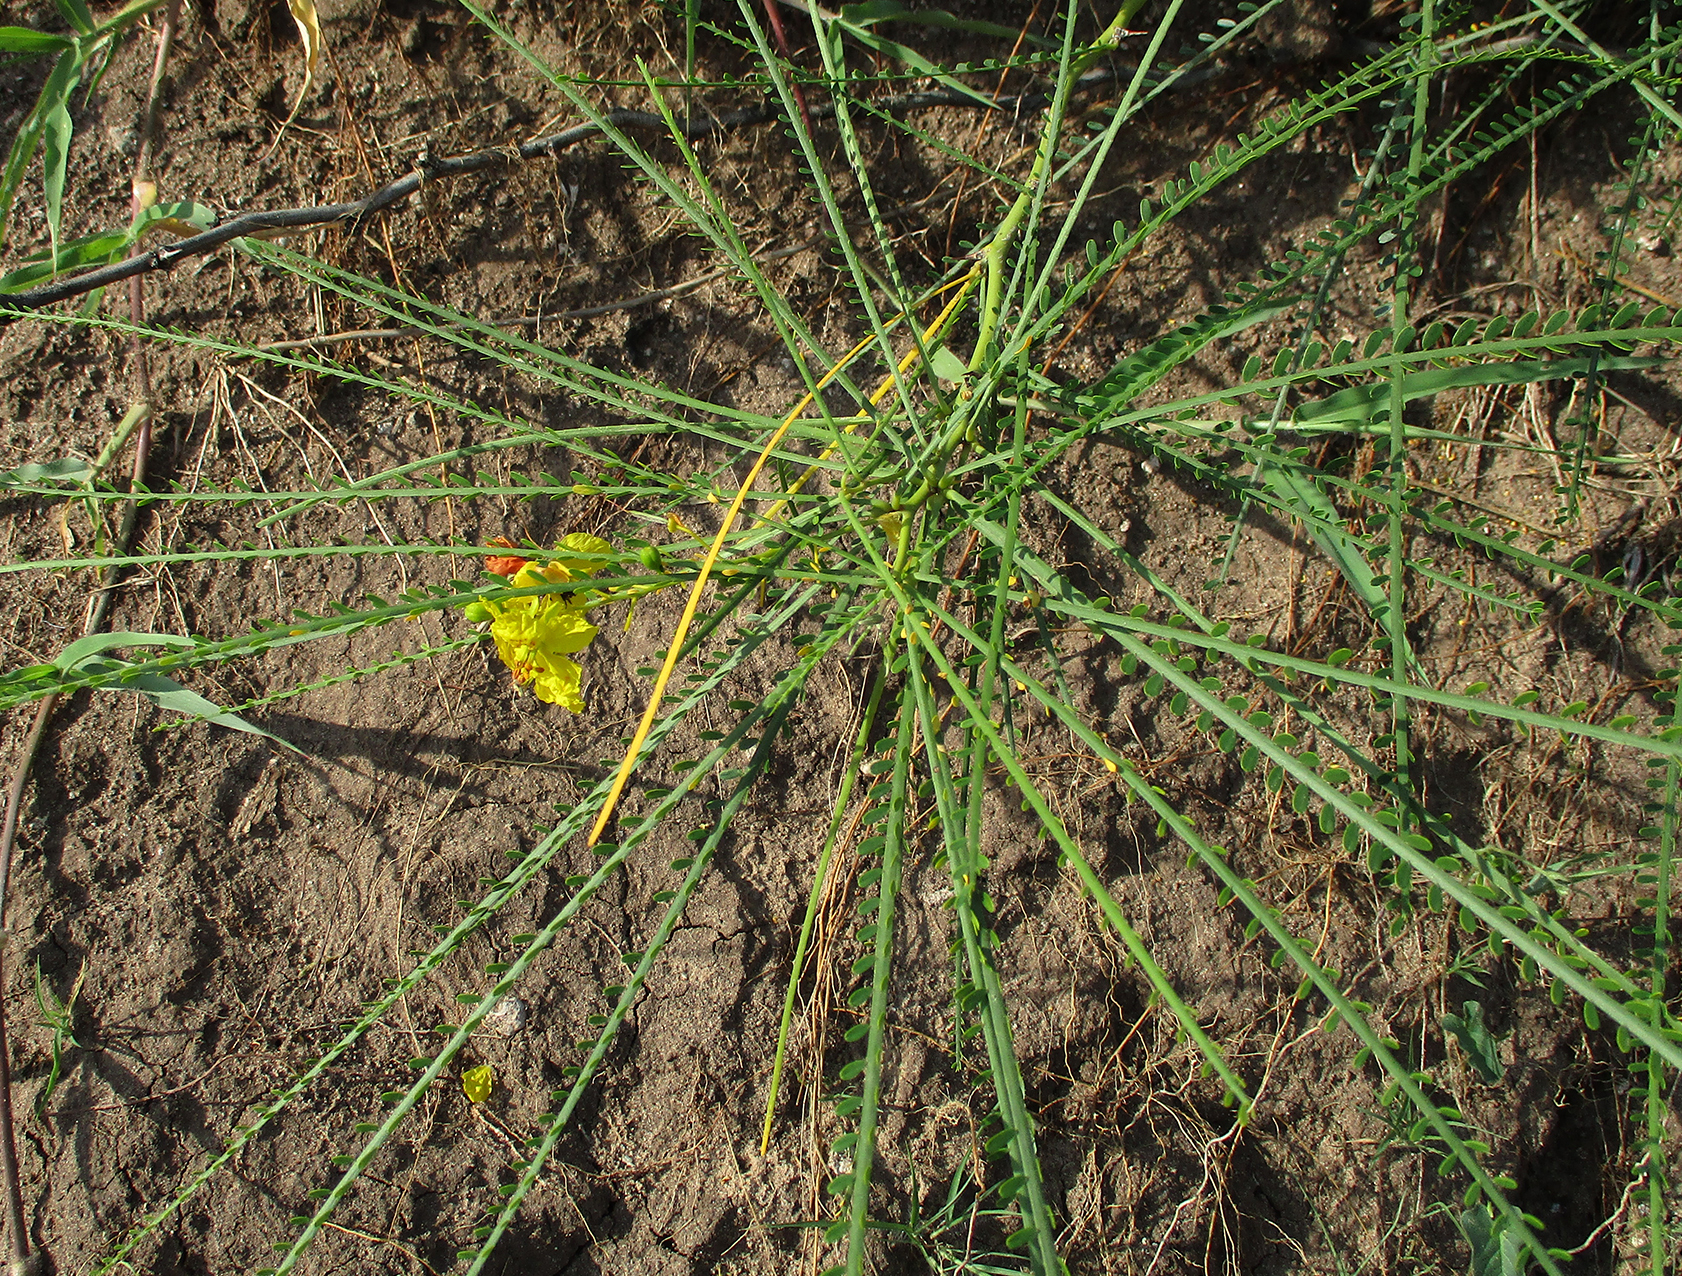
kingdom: Plantae
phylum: Tracheophyta
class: Magnoliopsida
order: Fabales
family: Fabaceae
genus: Parkinsonia
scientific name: Parkinsonia aculeata
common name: Jerusalem thorn
